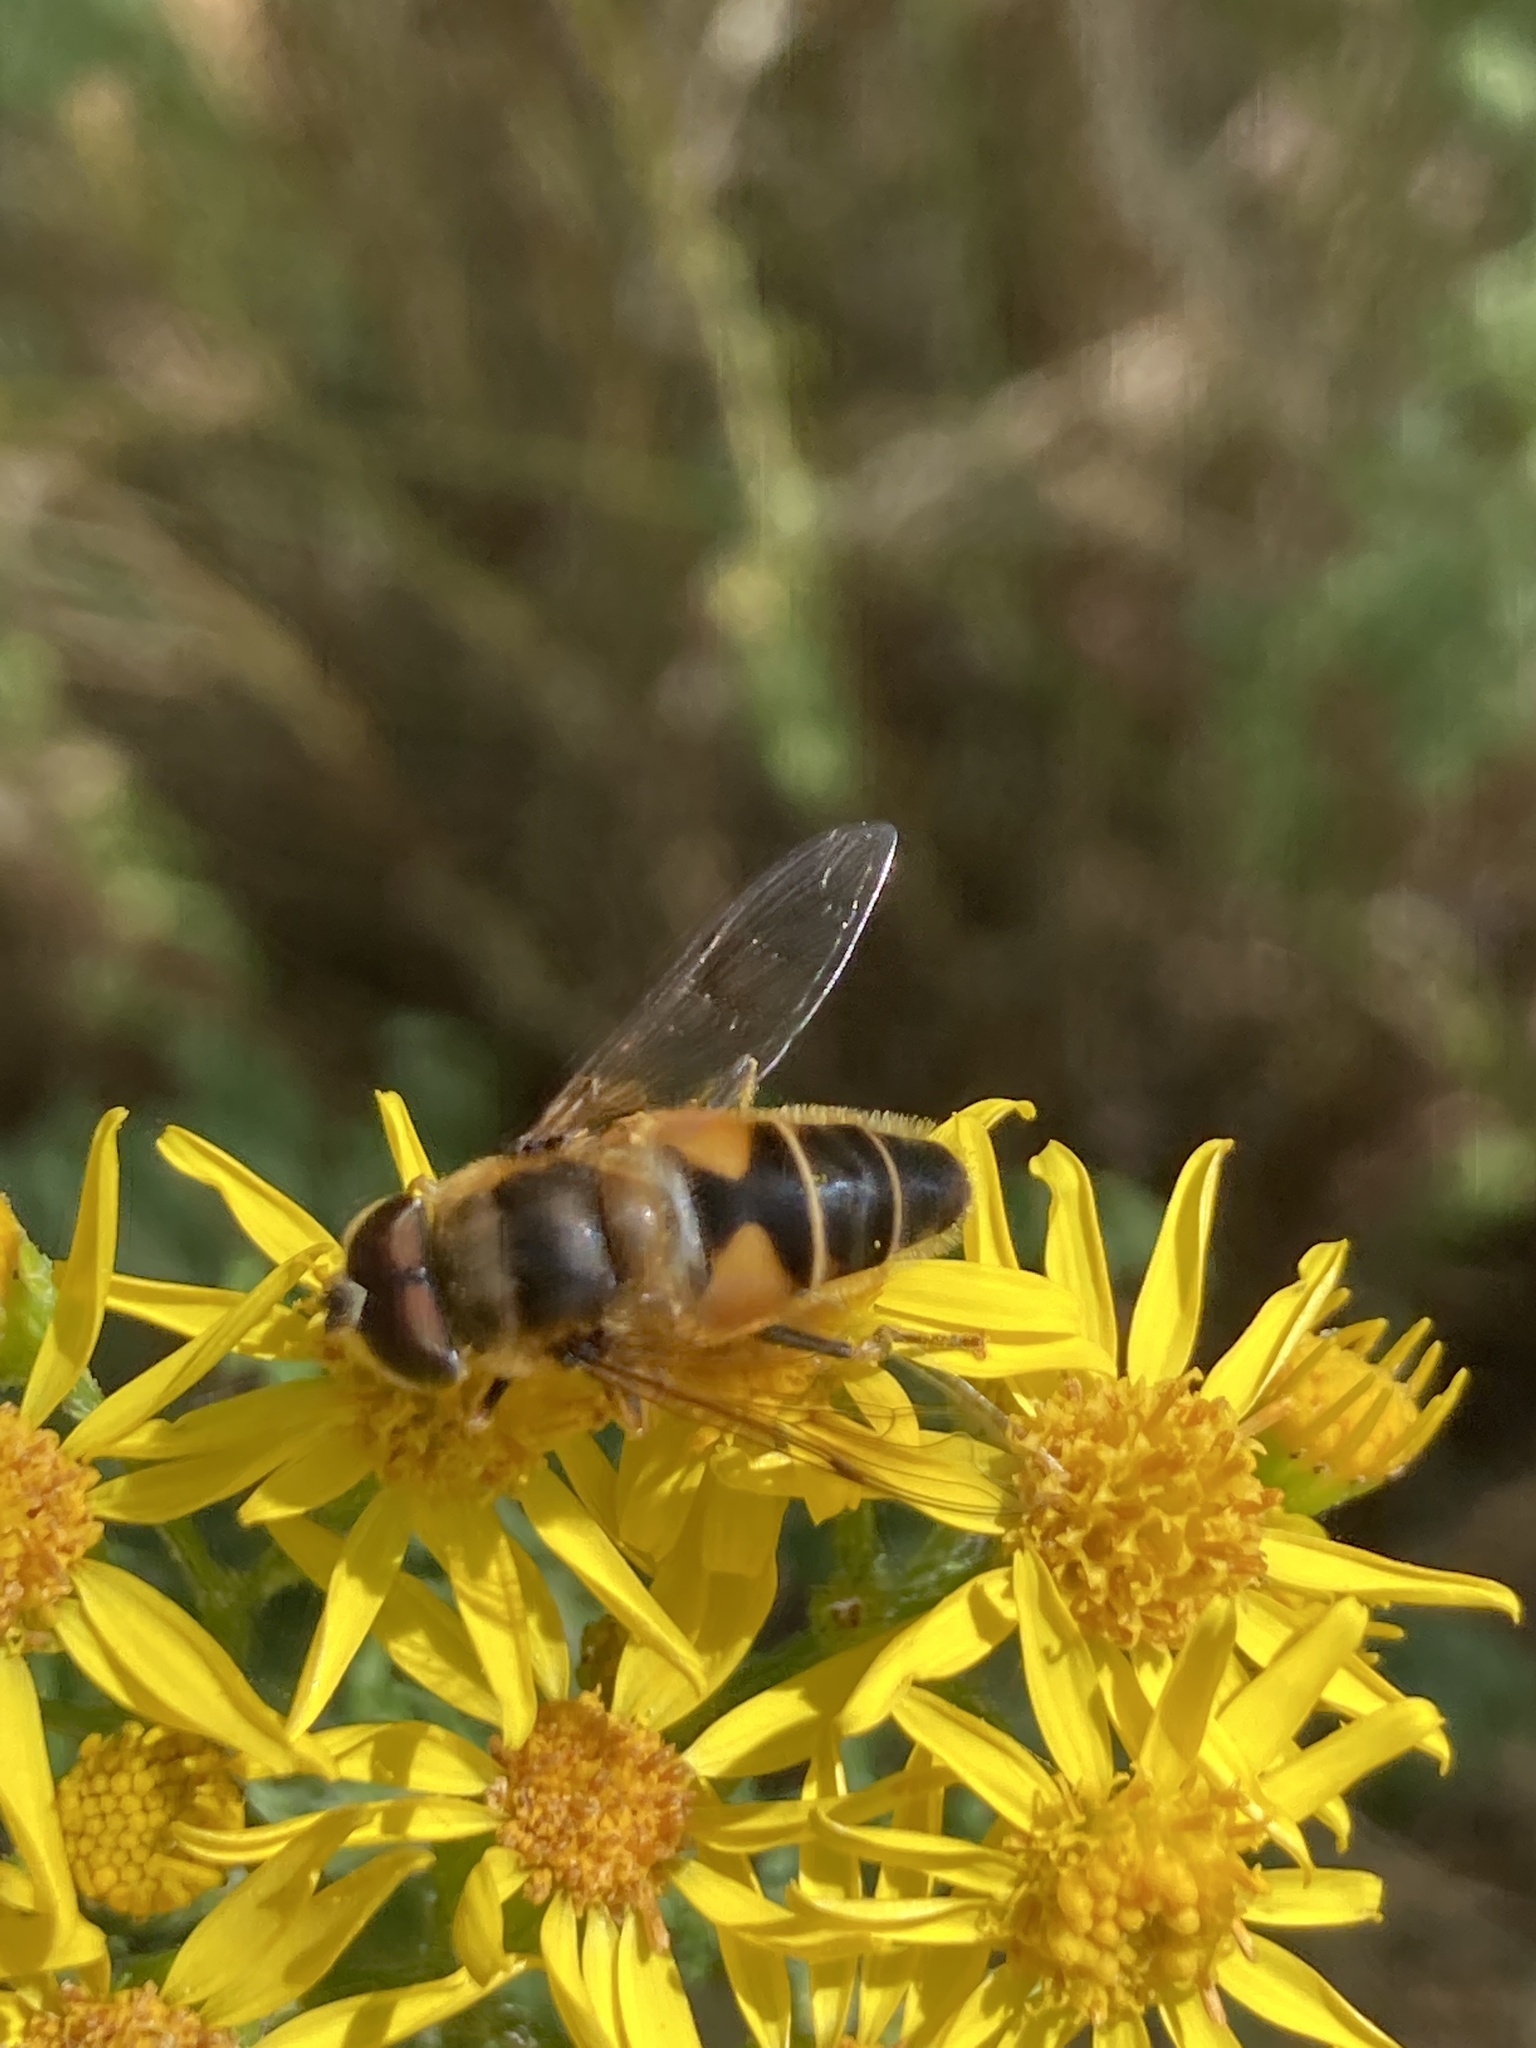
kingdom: Animalia
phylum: Arthropoda
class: Insecta
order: Diptera
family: Syrphidae
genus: Eristalis
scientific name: Eristalis pertinax
